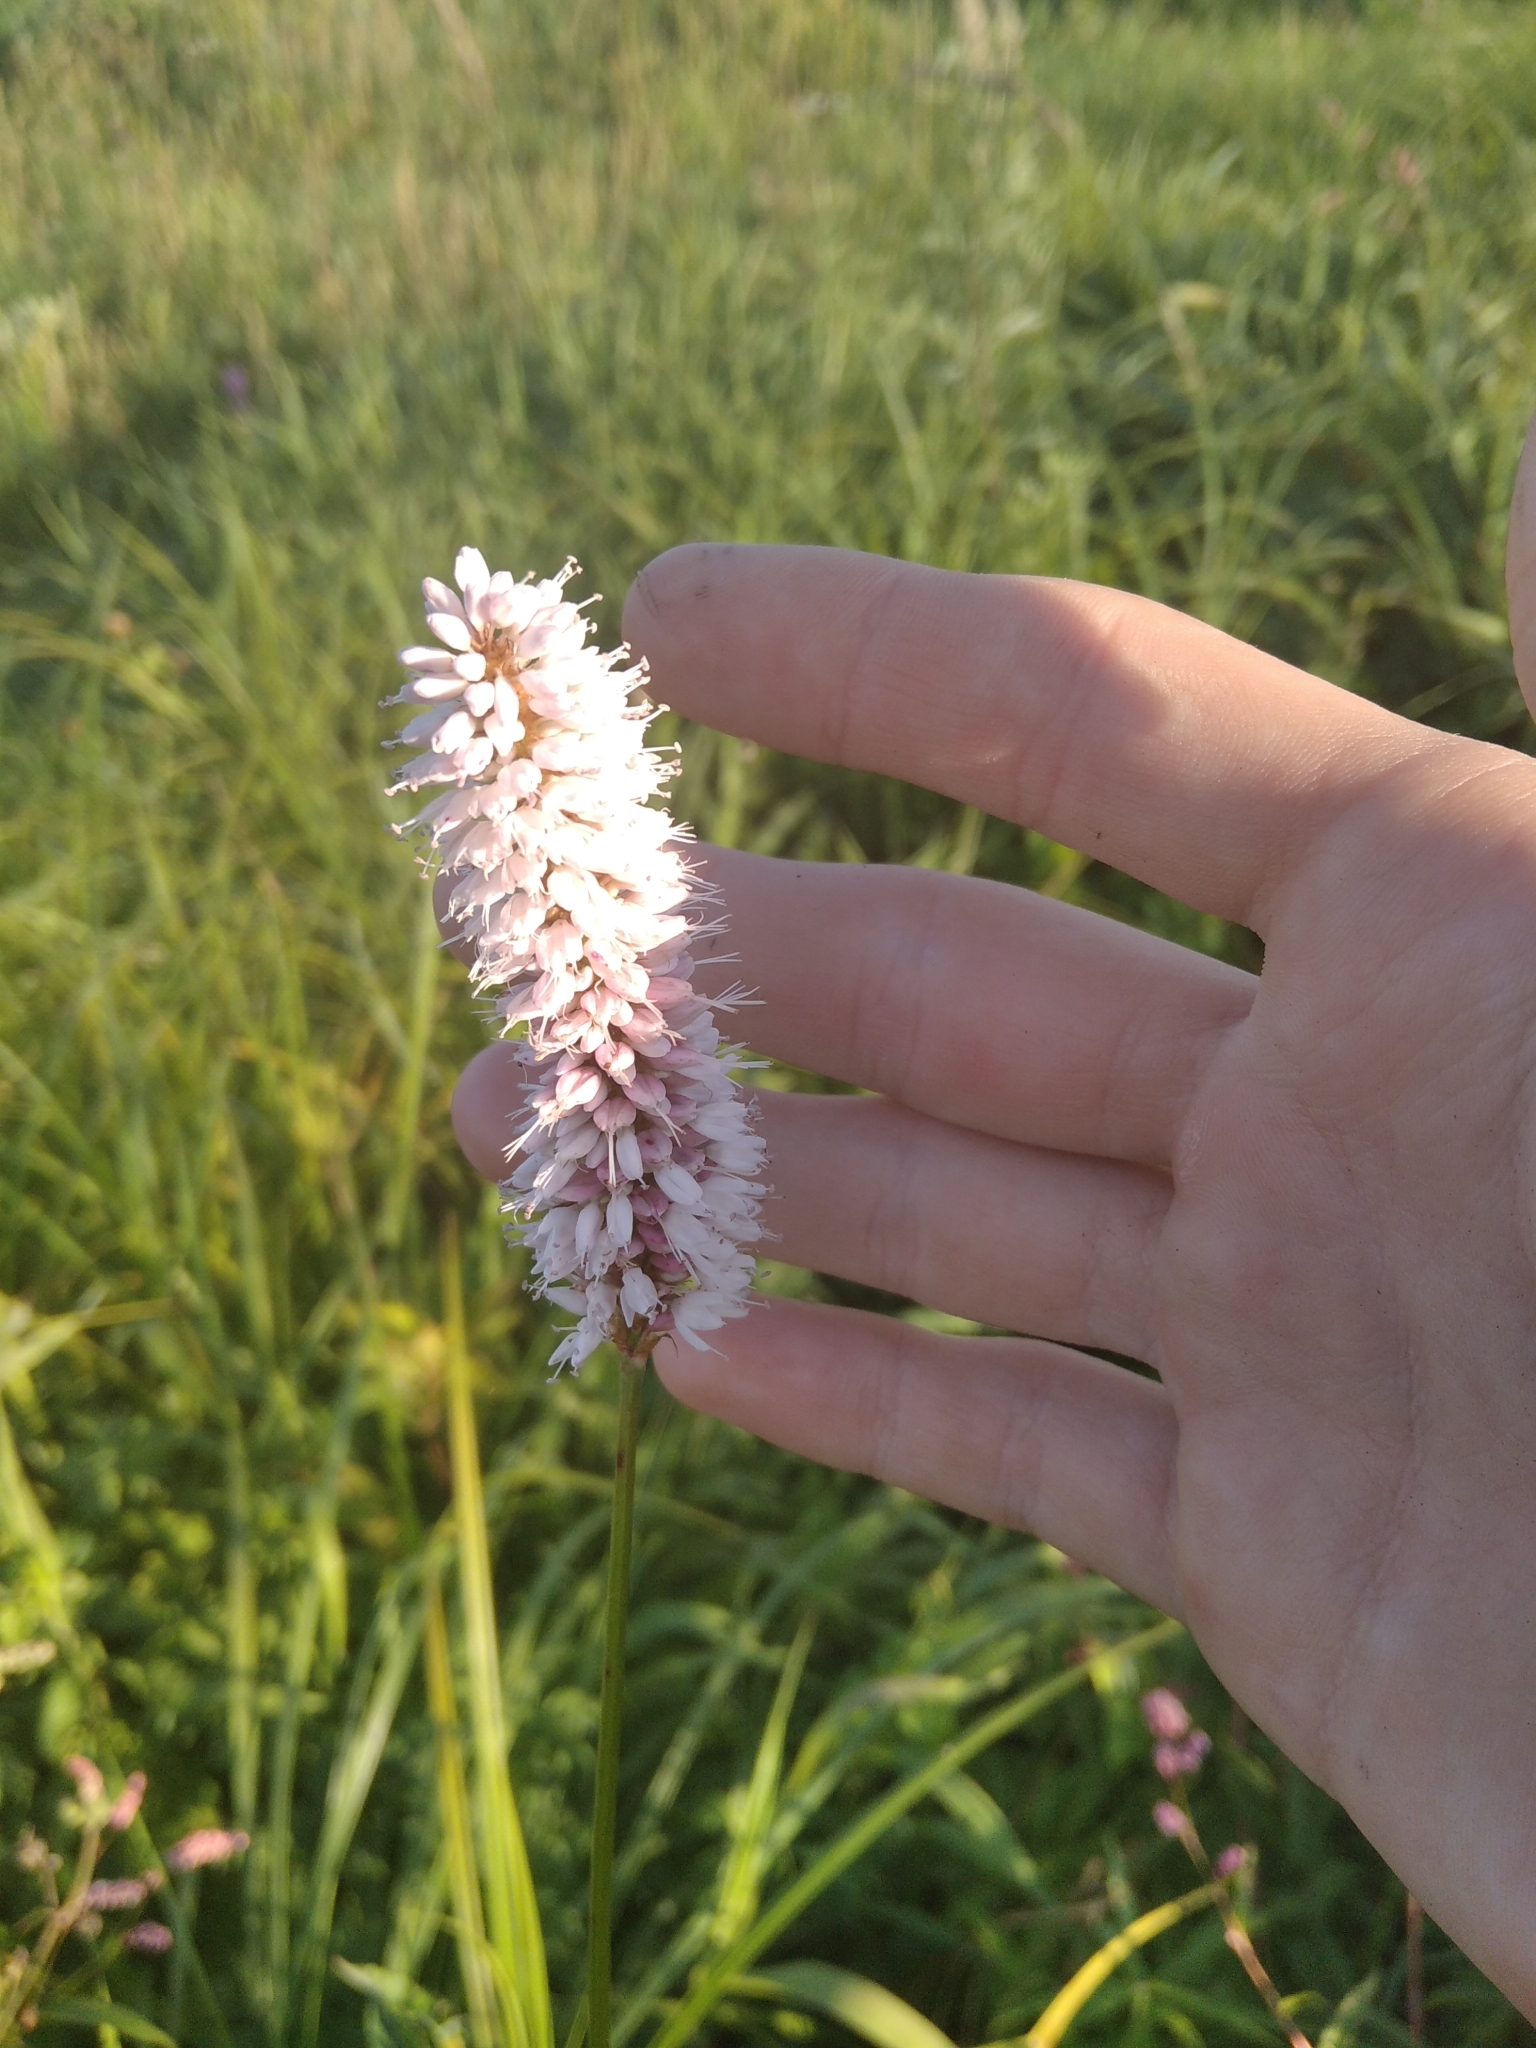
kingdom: Plantae
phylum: Tracheophyta
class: Magnoliopsida
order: Caryophyllales
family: Polygonaceae
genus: Bistorta
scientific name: Bistorta officinalis
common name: Common bistort
